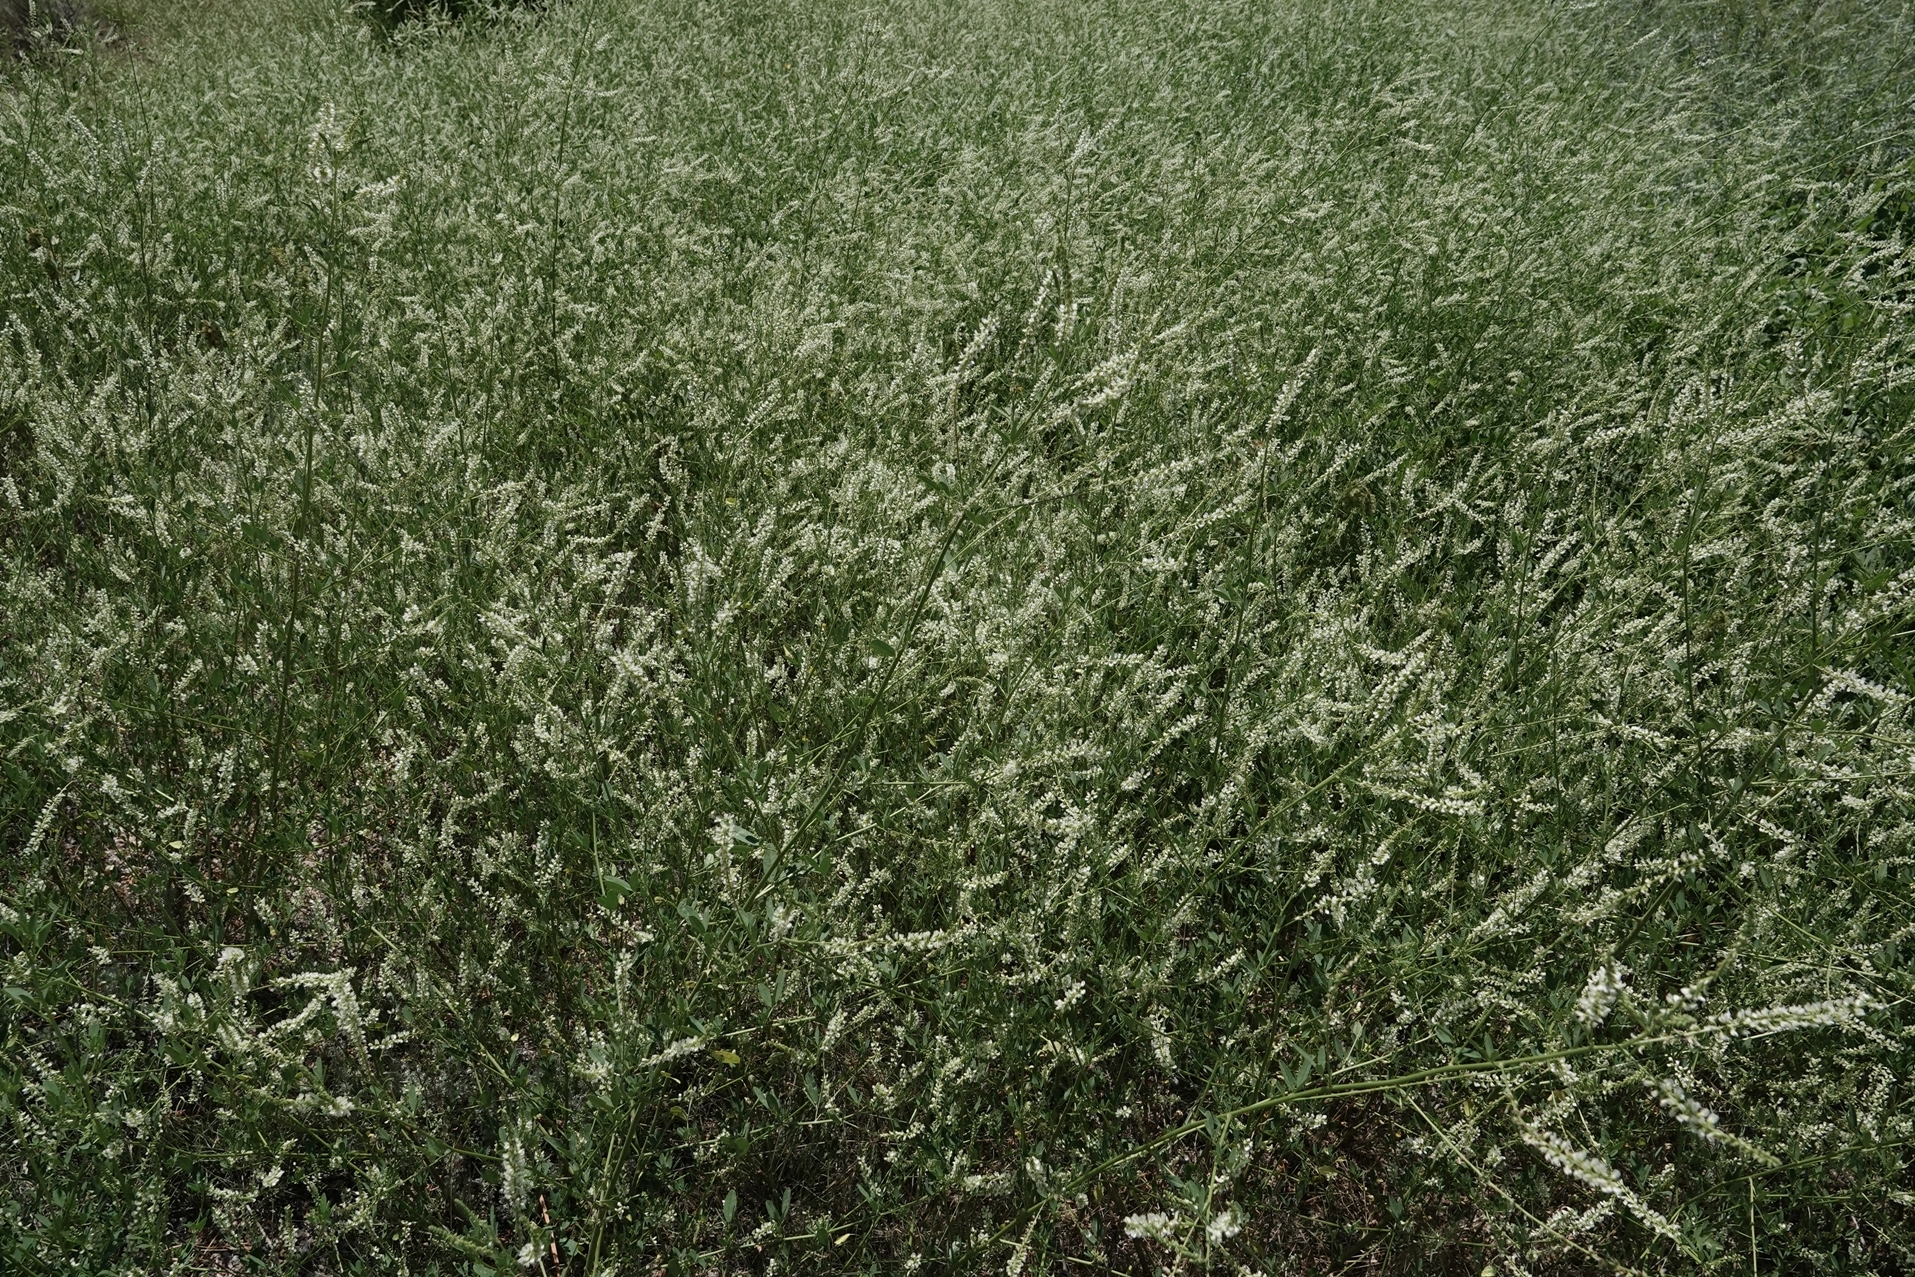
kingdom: Plantae
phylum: Tracheophyta
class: Magnoliopsida
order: Fabales
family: Fabaceae
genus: Melilotus
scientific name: Melilotus albus
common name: White melilot
